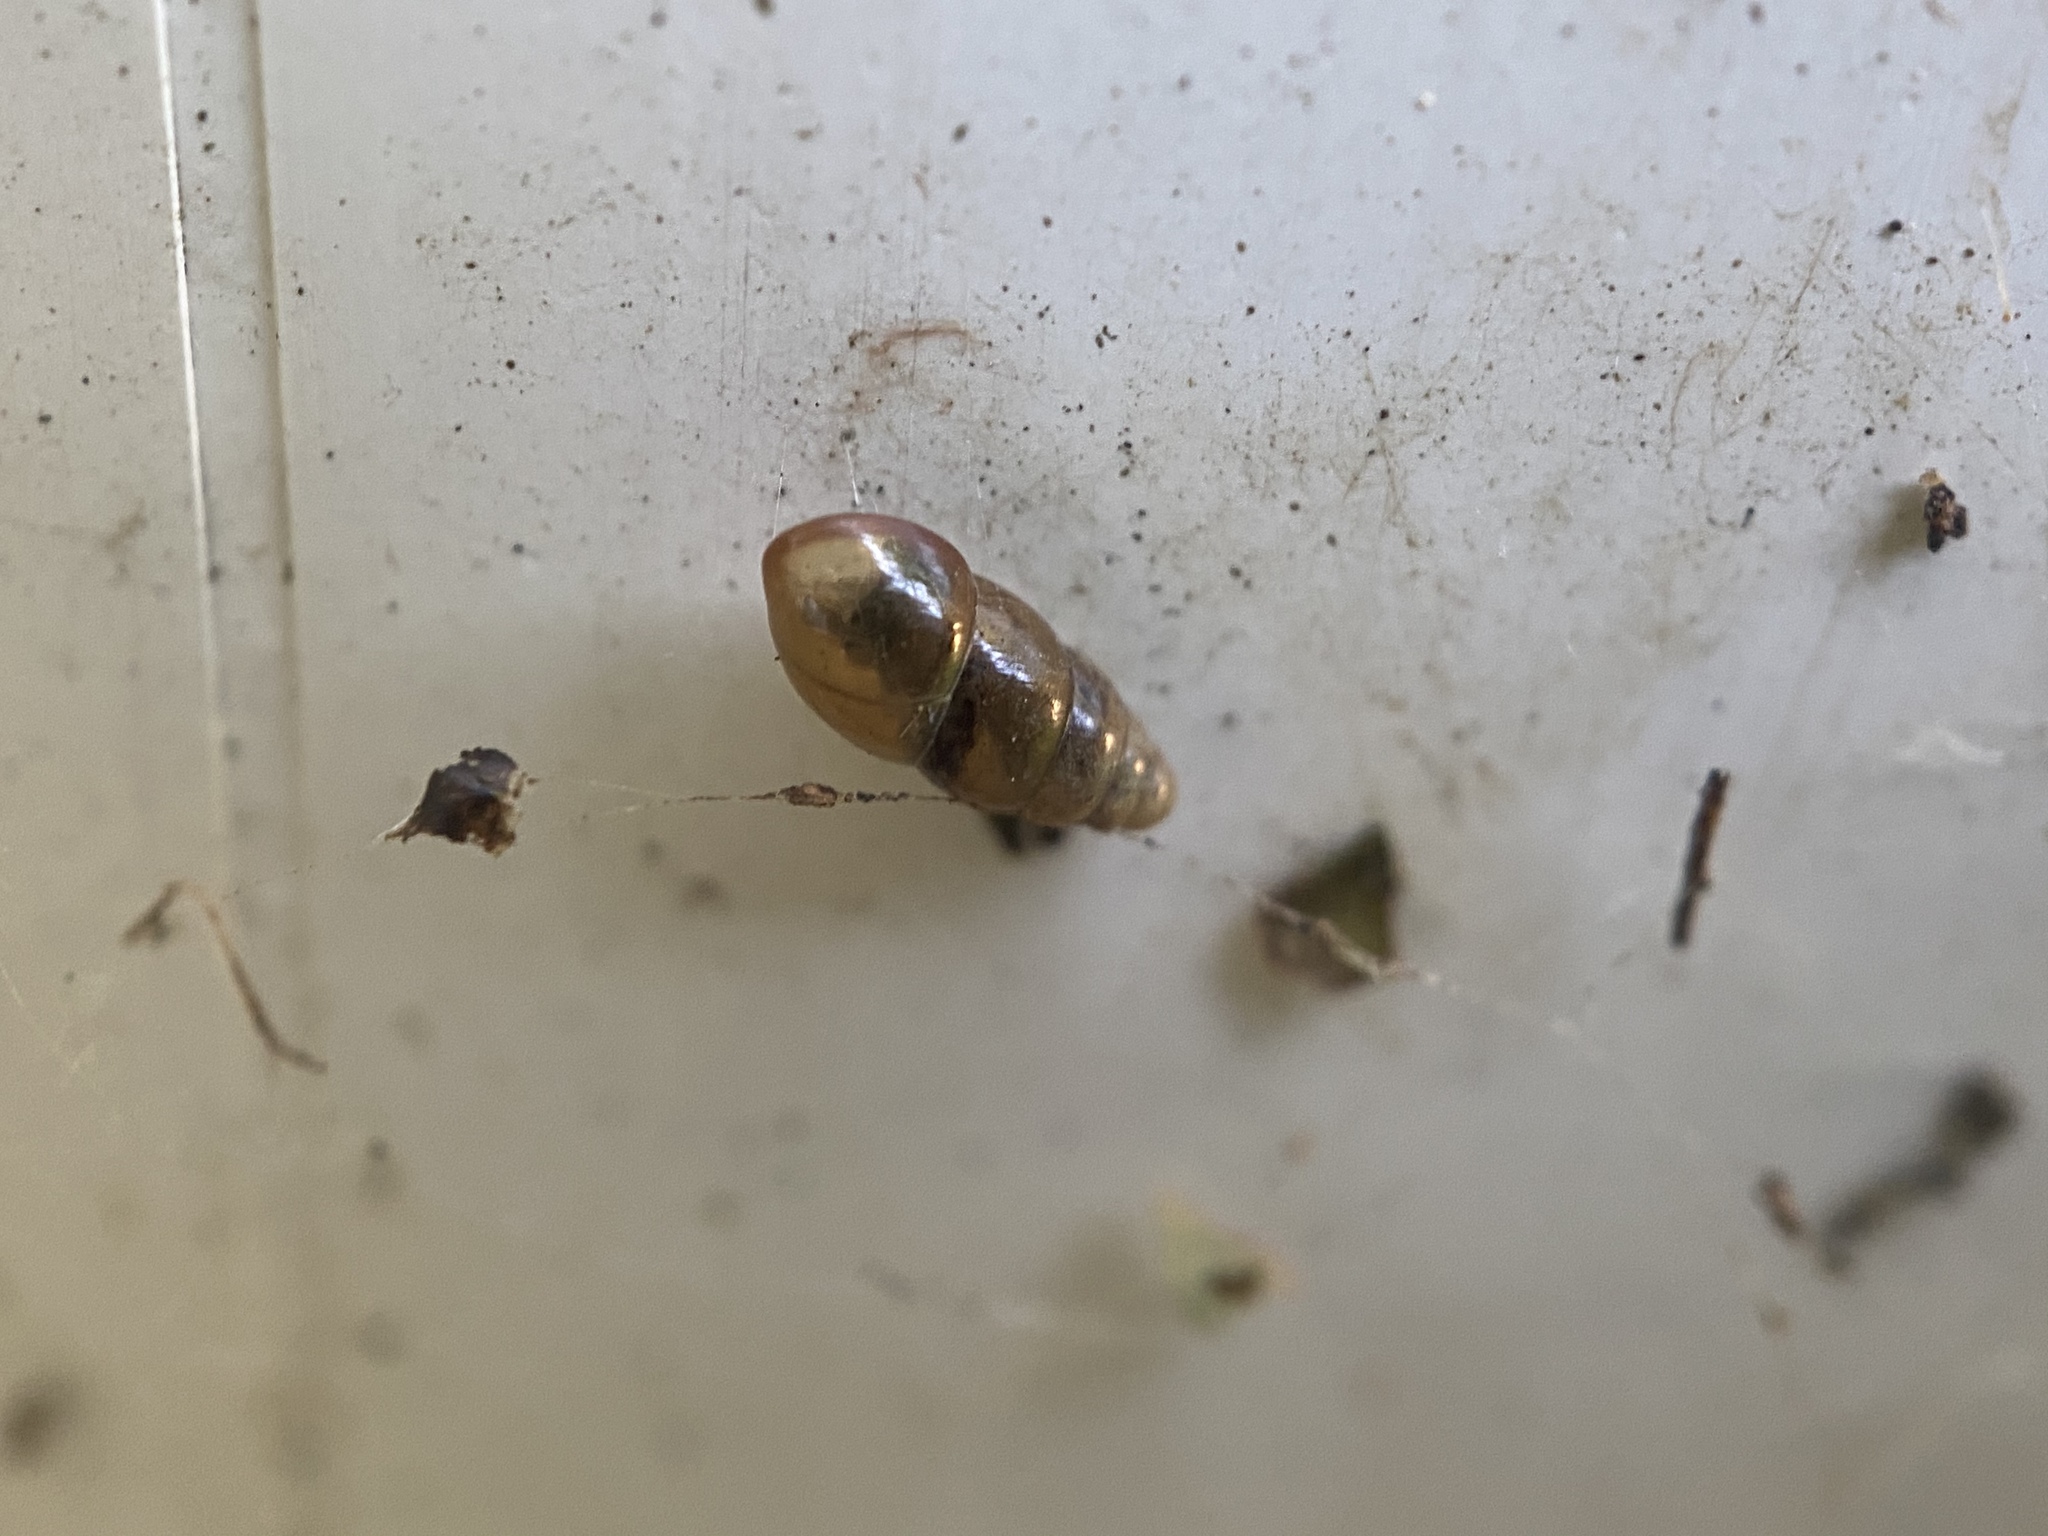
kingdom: Animalia
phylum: Mollusca
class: Gastropoda
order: Stylommatophora
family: Cochlicopidae
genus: Cochlicopa
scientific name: Cochlicopa lubrica
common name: Glossy pillar snail
